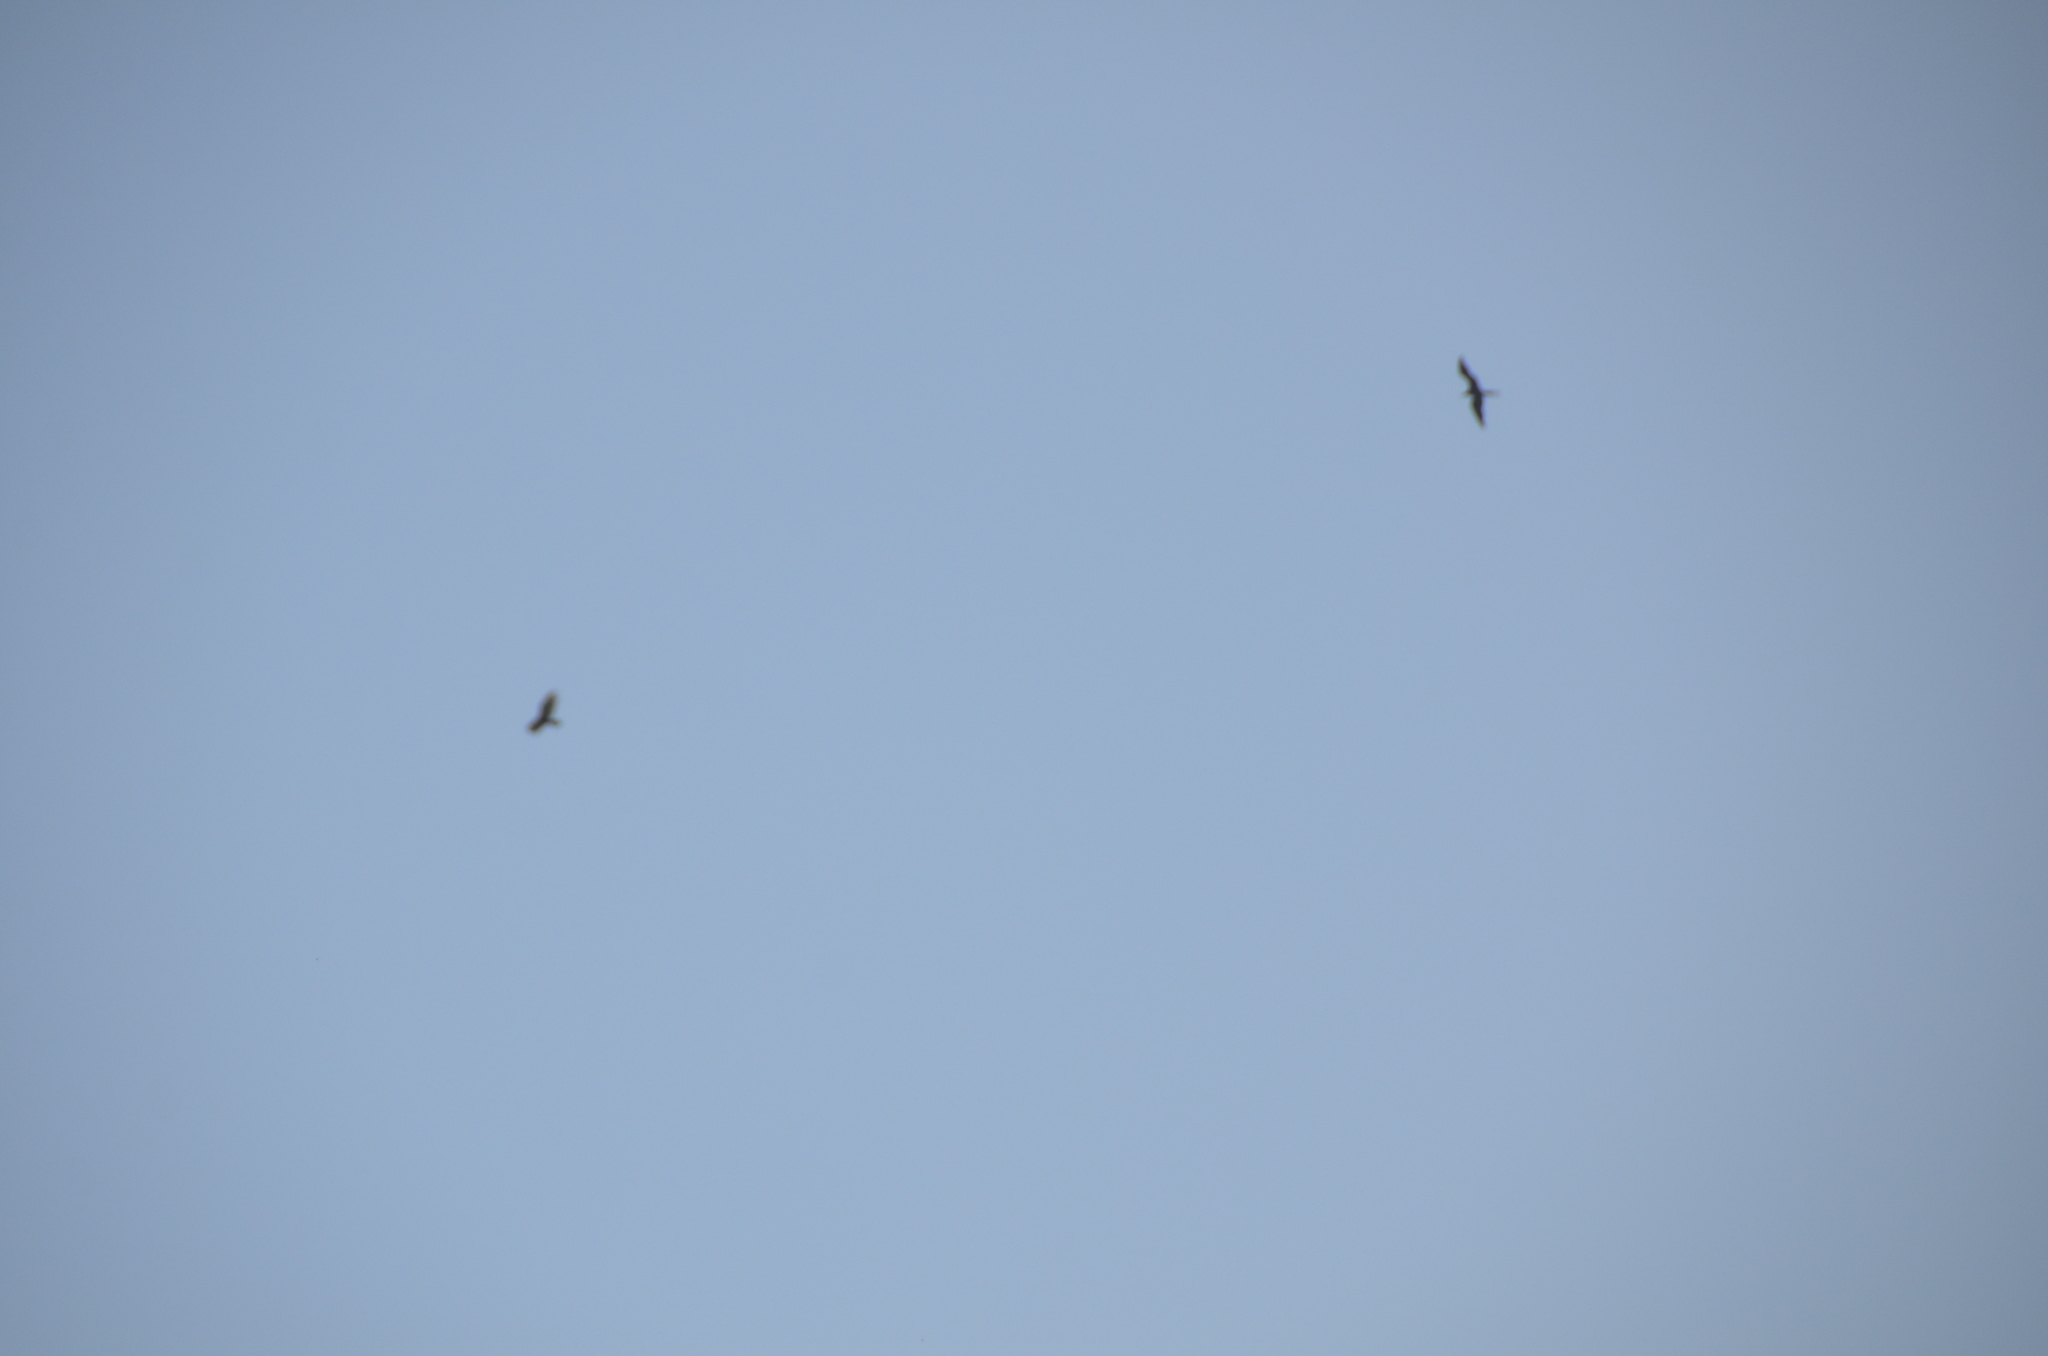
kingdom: Animalia
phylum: Chordata
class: Aves
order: Suliformes
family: Fregatidae
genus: Fregata
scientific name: Fregata magnificens
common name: Magnificent frigatebird
